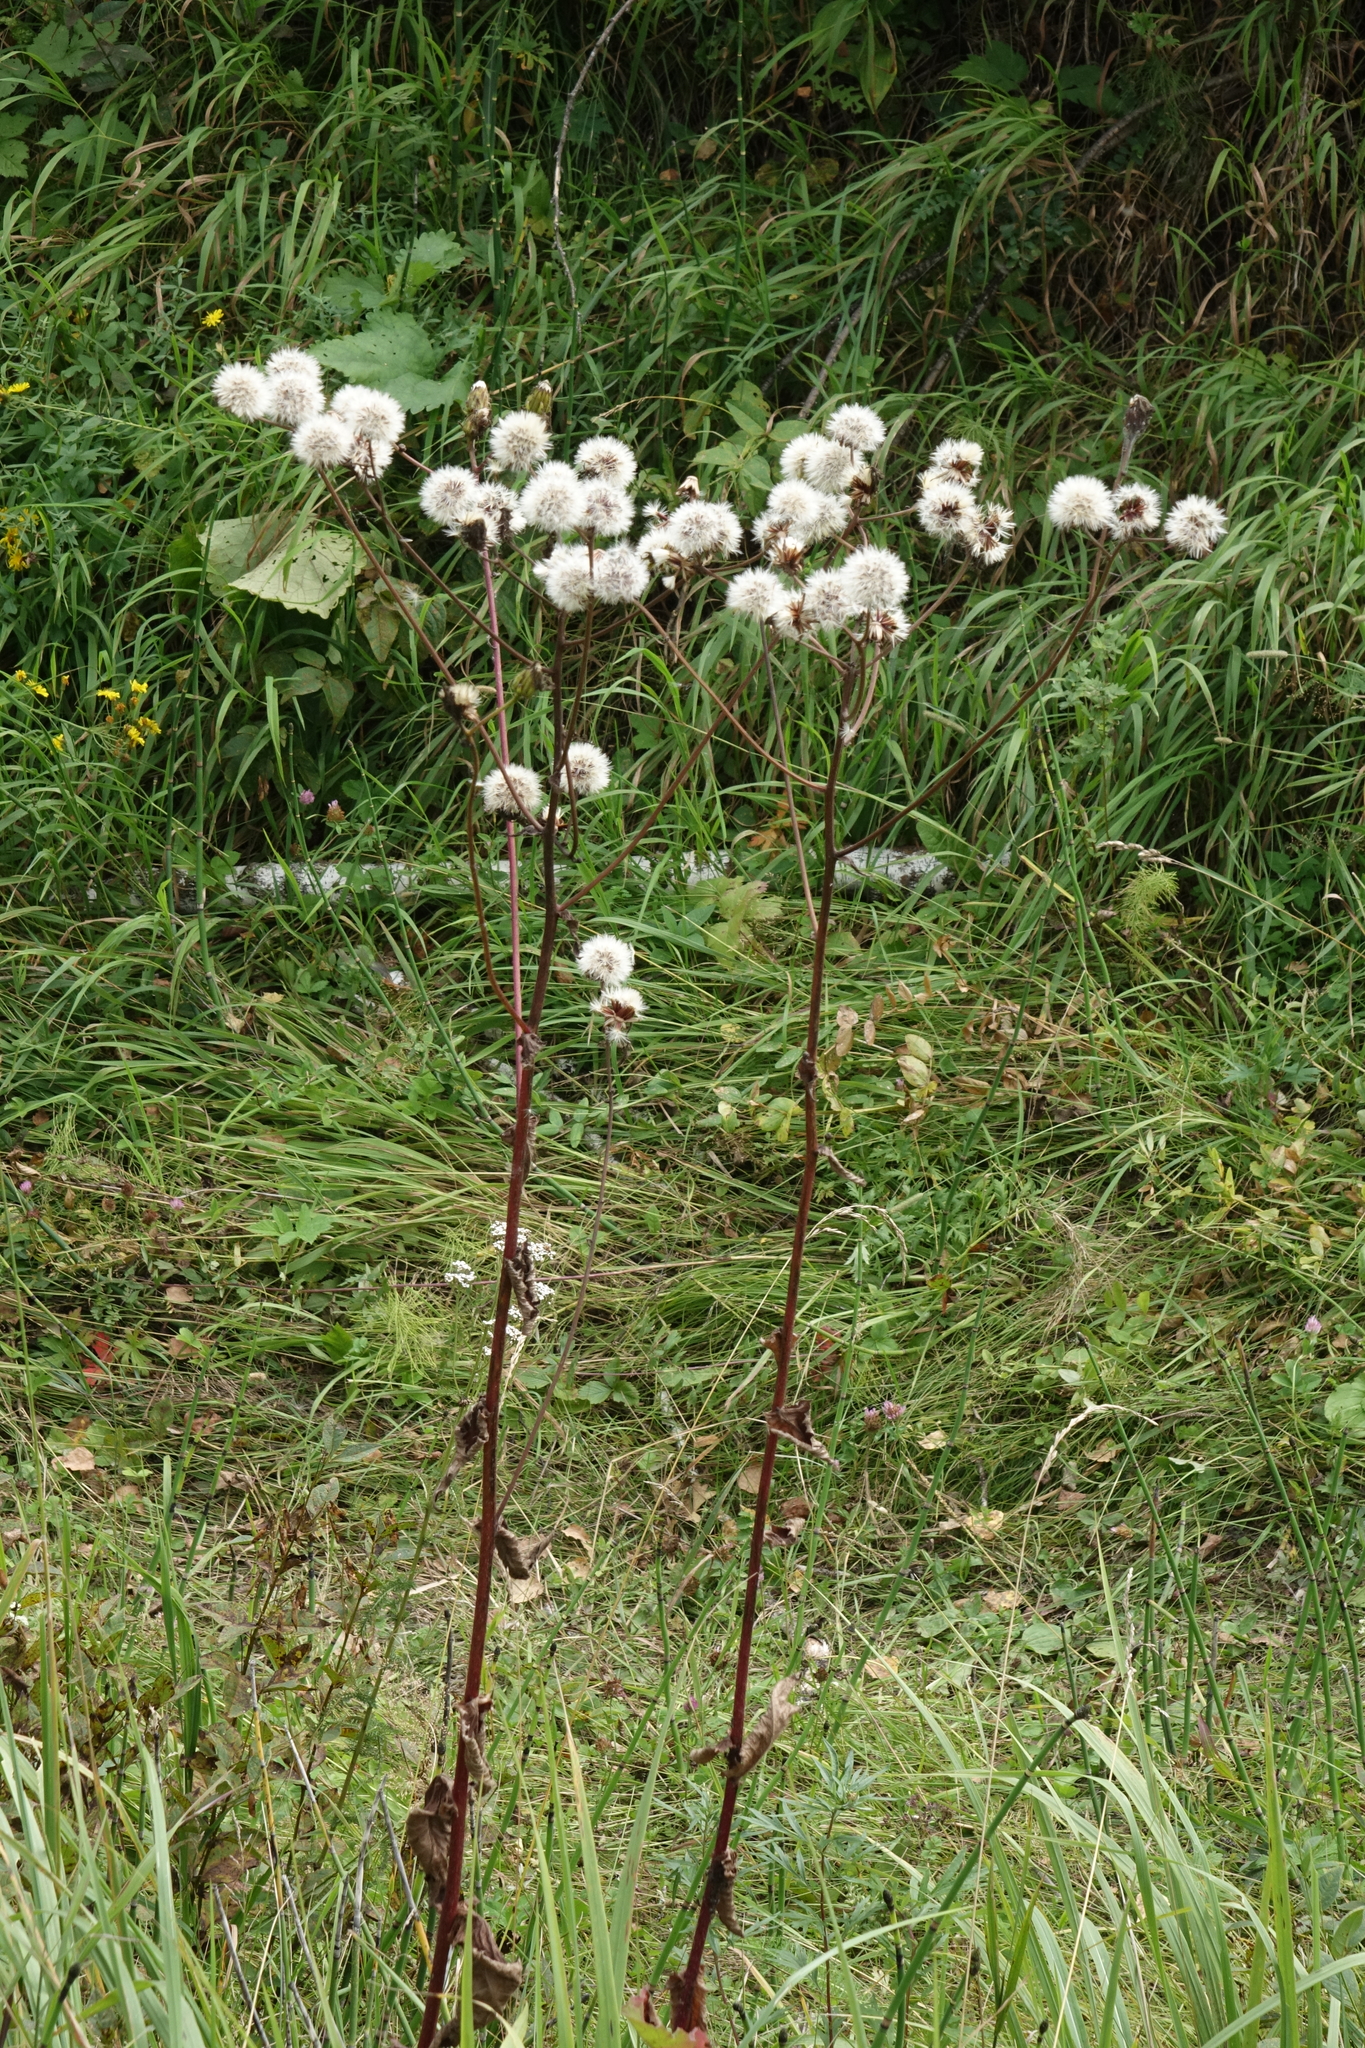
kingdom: Plantae
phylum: Tracheophyta
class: Magnoliopsida
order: Asterales
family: Asteraceae
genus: Crepis
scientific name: Crepis sibirica
